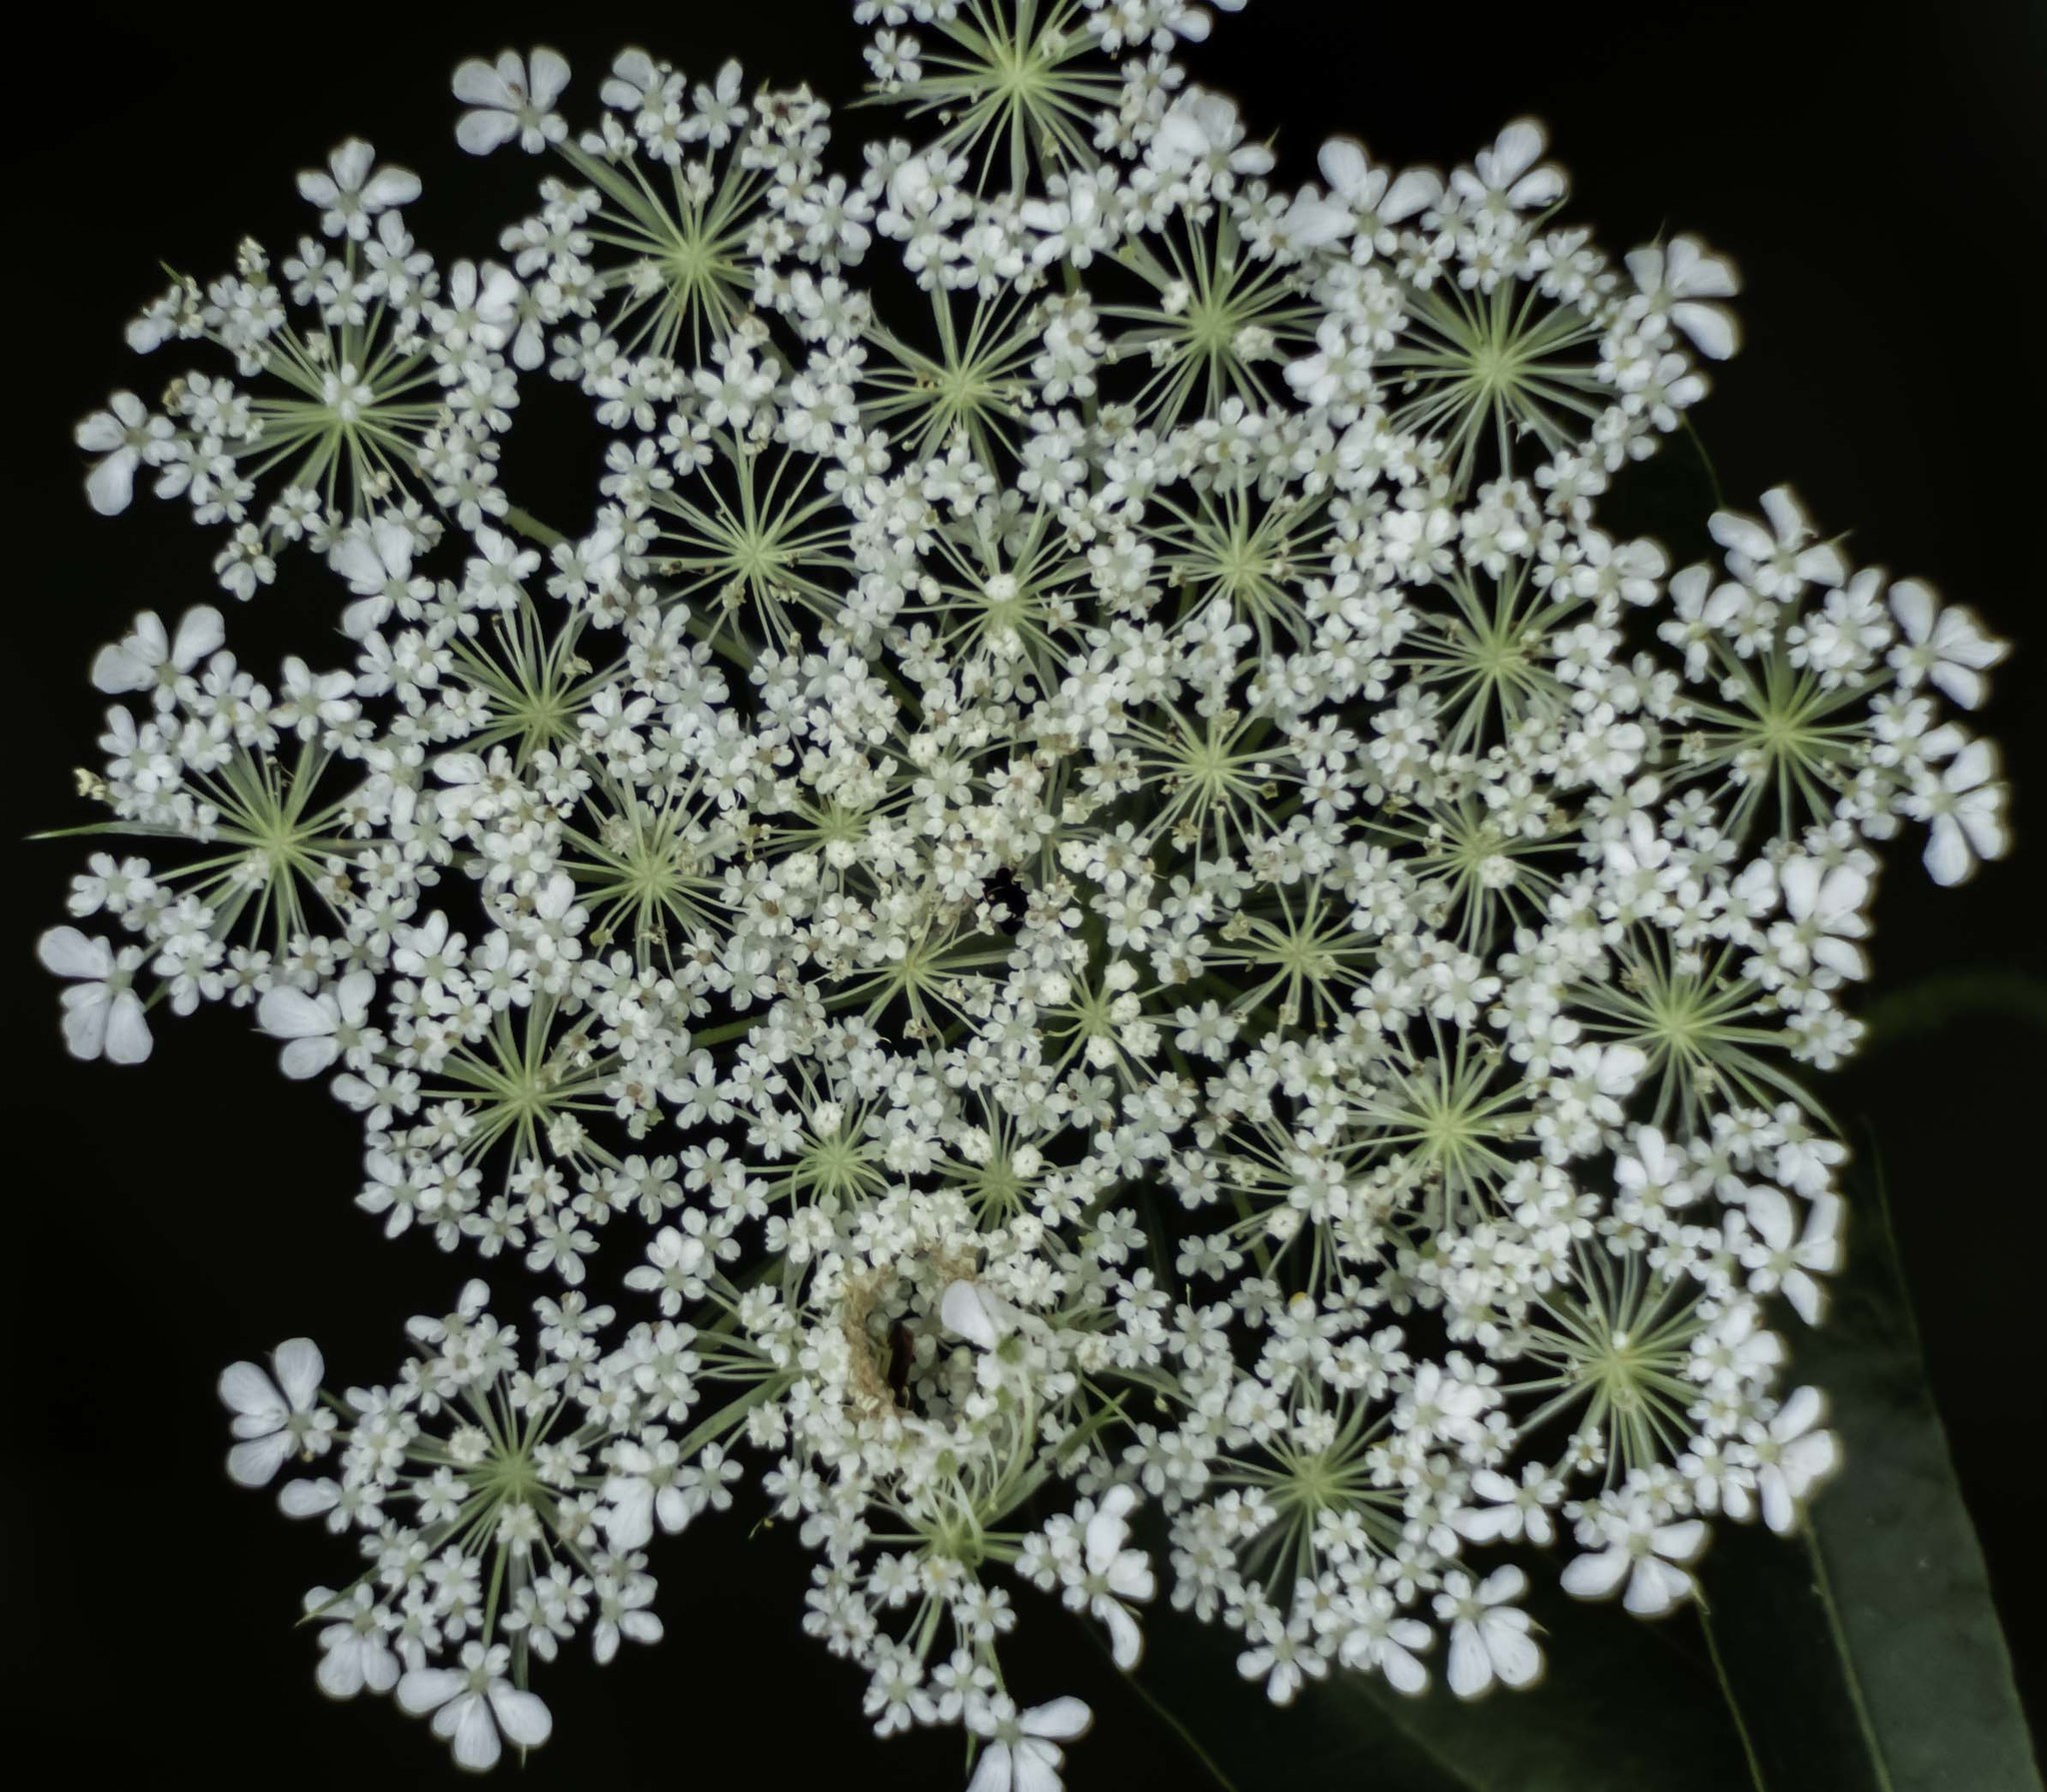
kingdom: Plantae
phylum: Tracheophyta
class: Magnoliopsida
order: Apiales
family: Apiaceae
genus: Daucus
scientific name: Daucus carota
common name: Wild carrot
